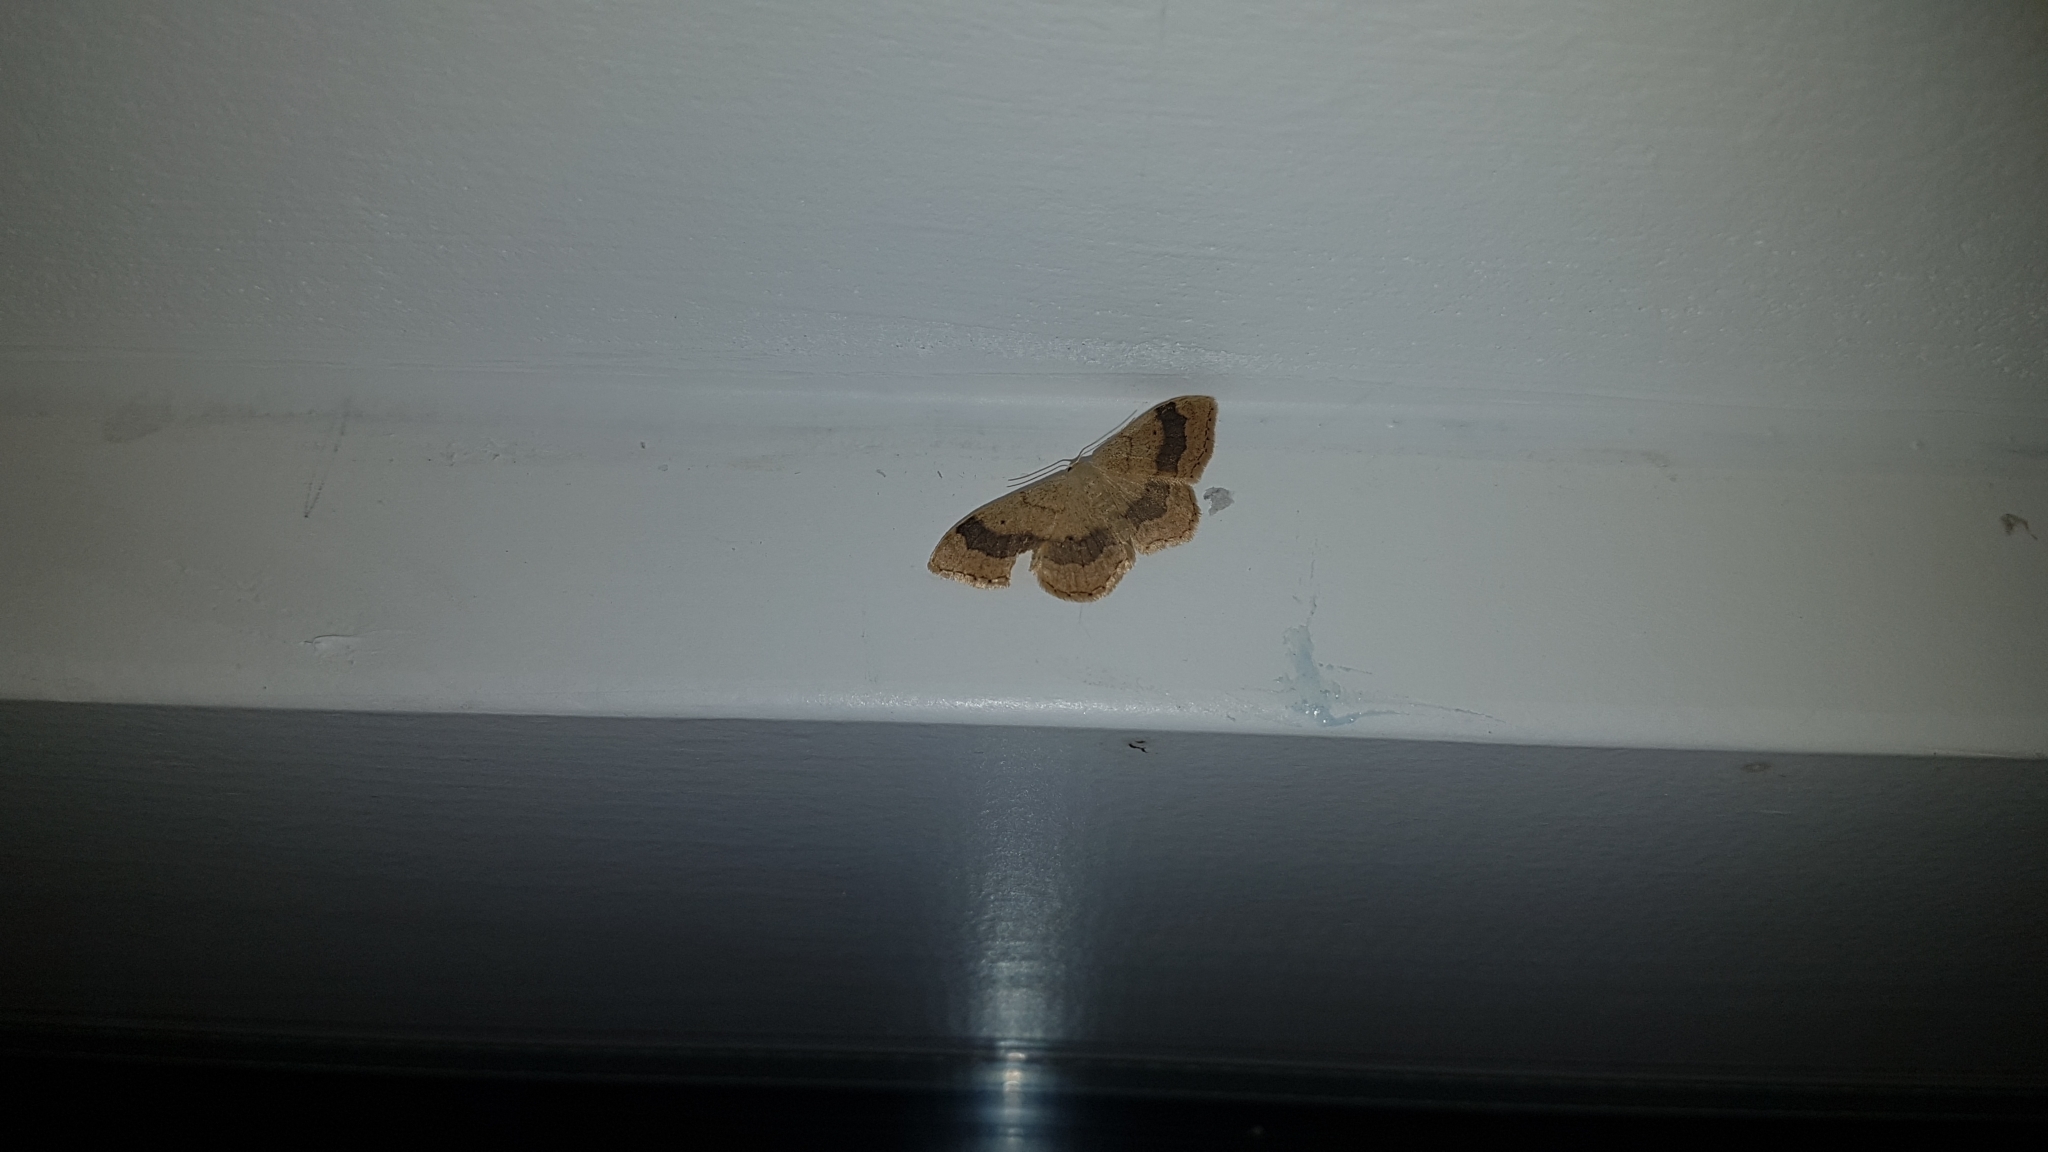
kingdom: Animalia
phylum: Arthropoda
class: Insecta
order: Lepidoptera
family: Geometridae
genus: Idaea
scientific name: Idaea aversata
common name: Riband wave
